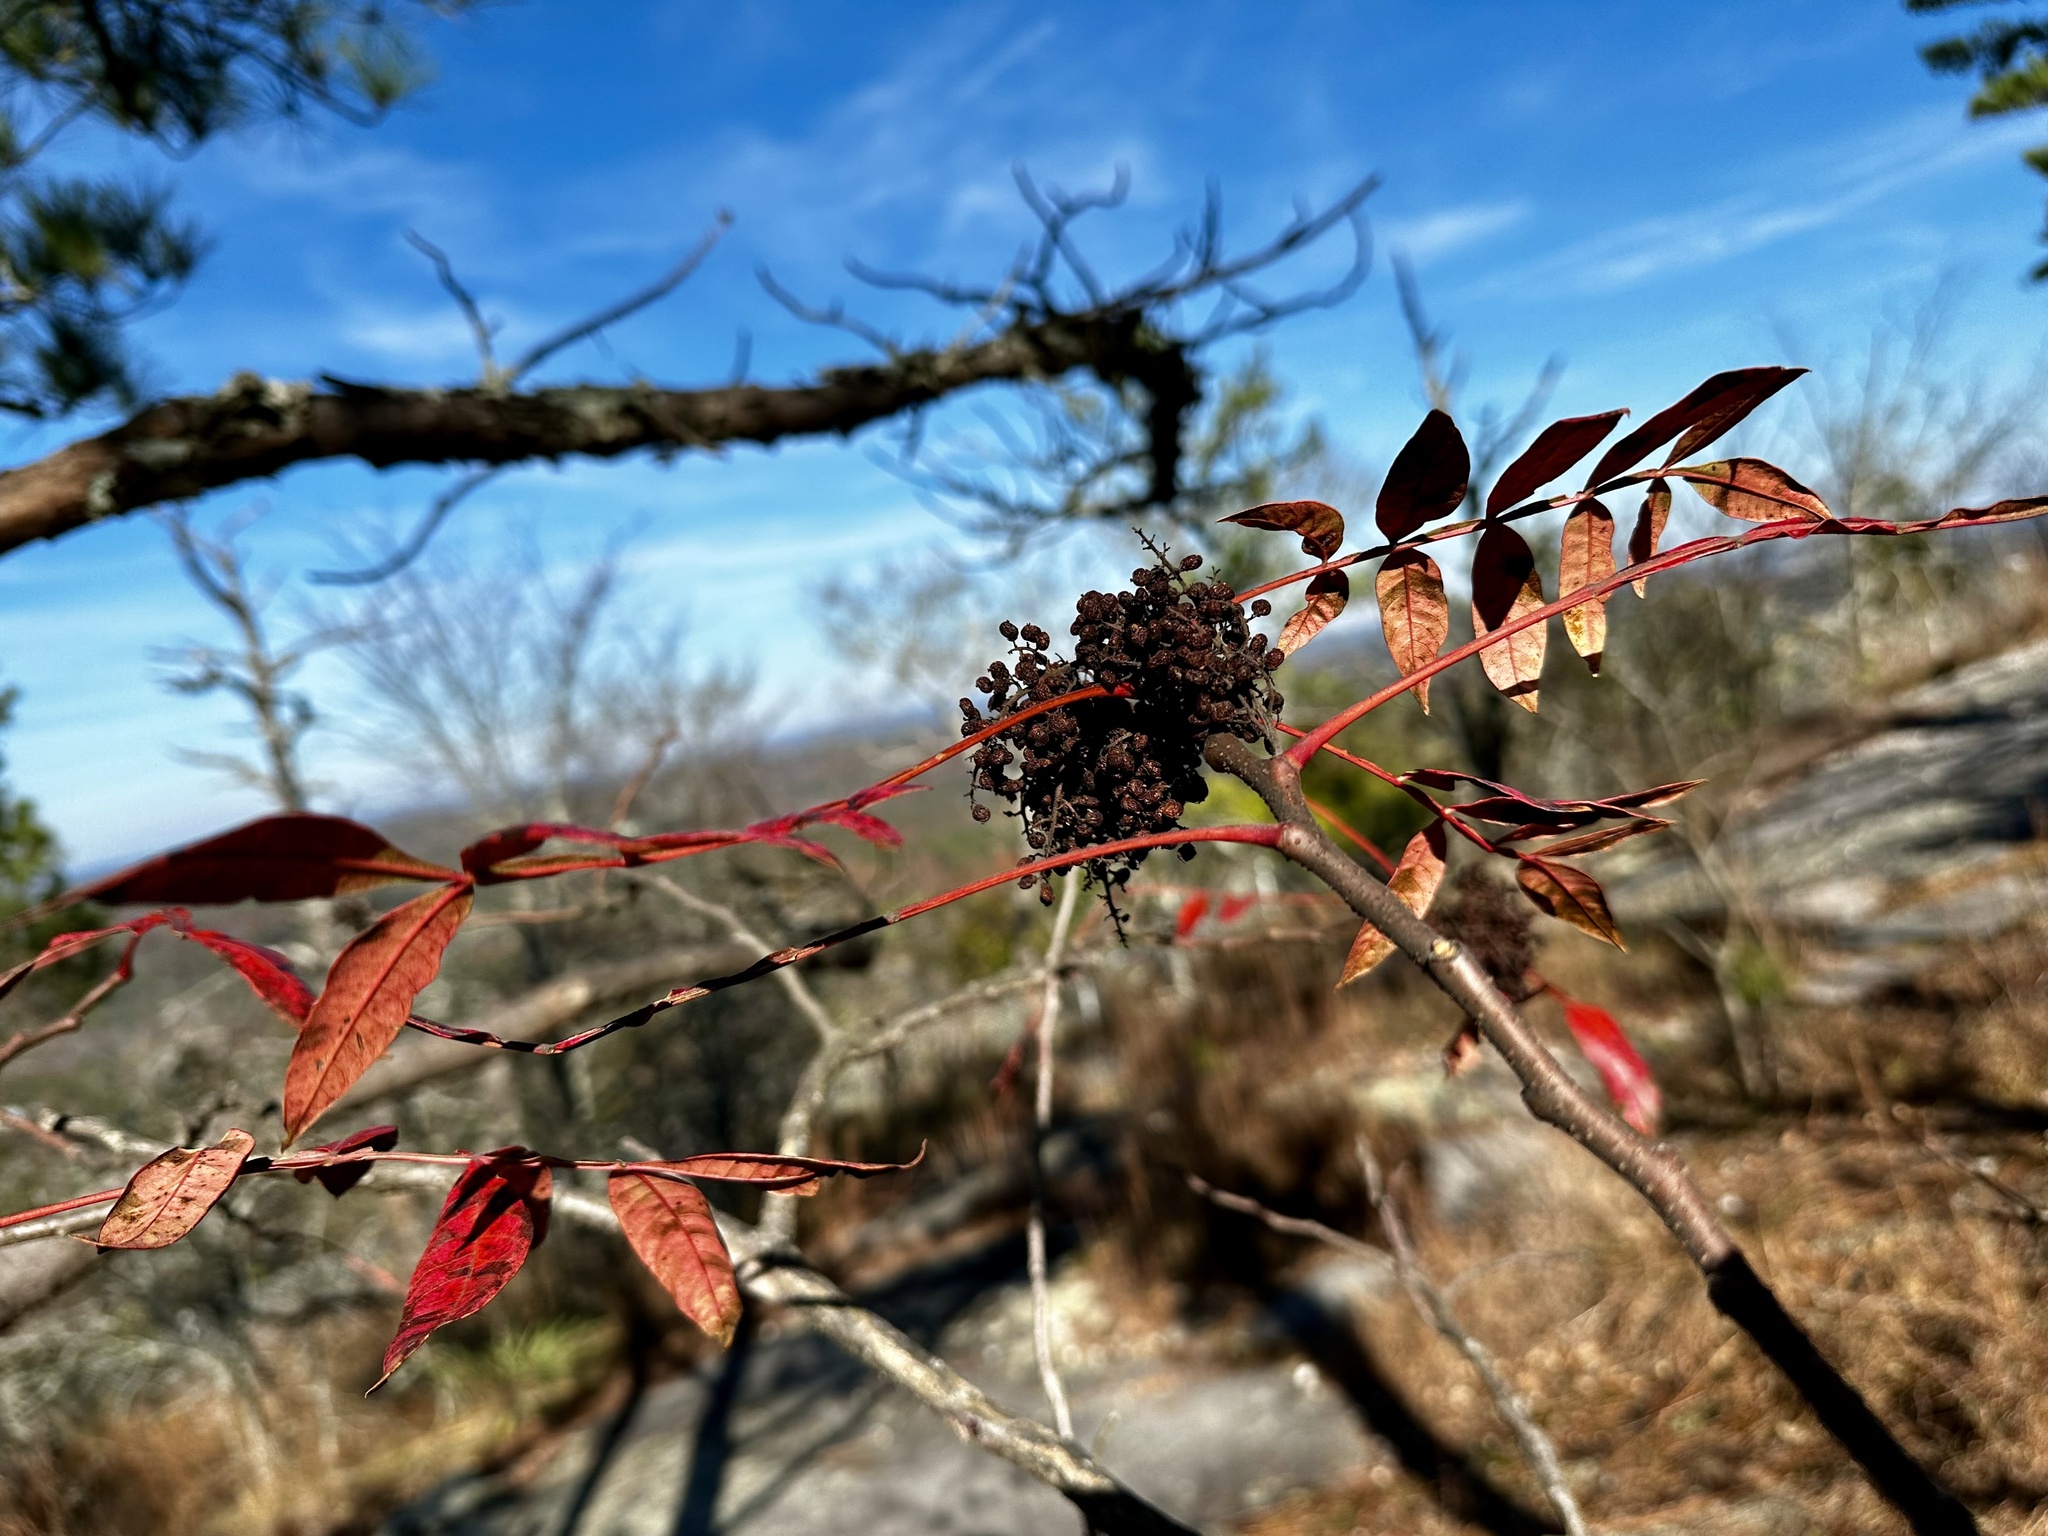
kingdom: Plantae
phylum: Tracheophyta
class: Magnoliopsida
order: Sapindales
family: Anacardiaceae
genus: Rhus
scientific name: Rhus copallina
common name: Shining sumac
